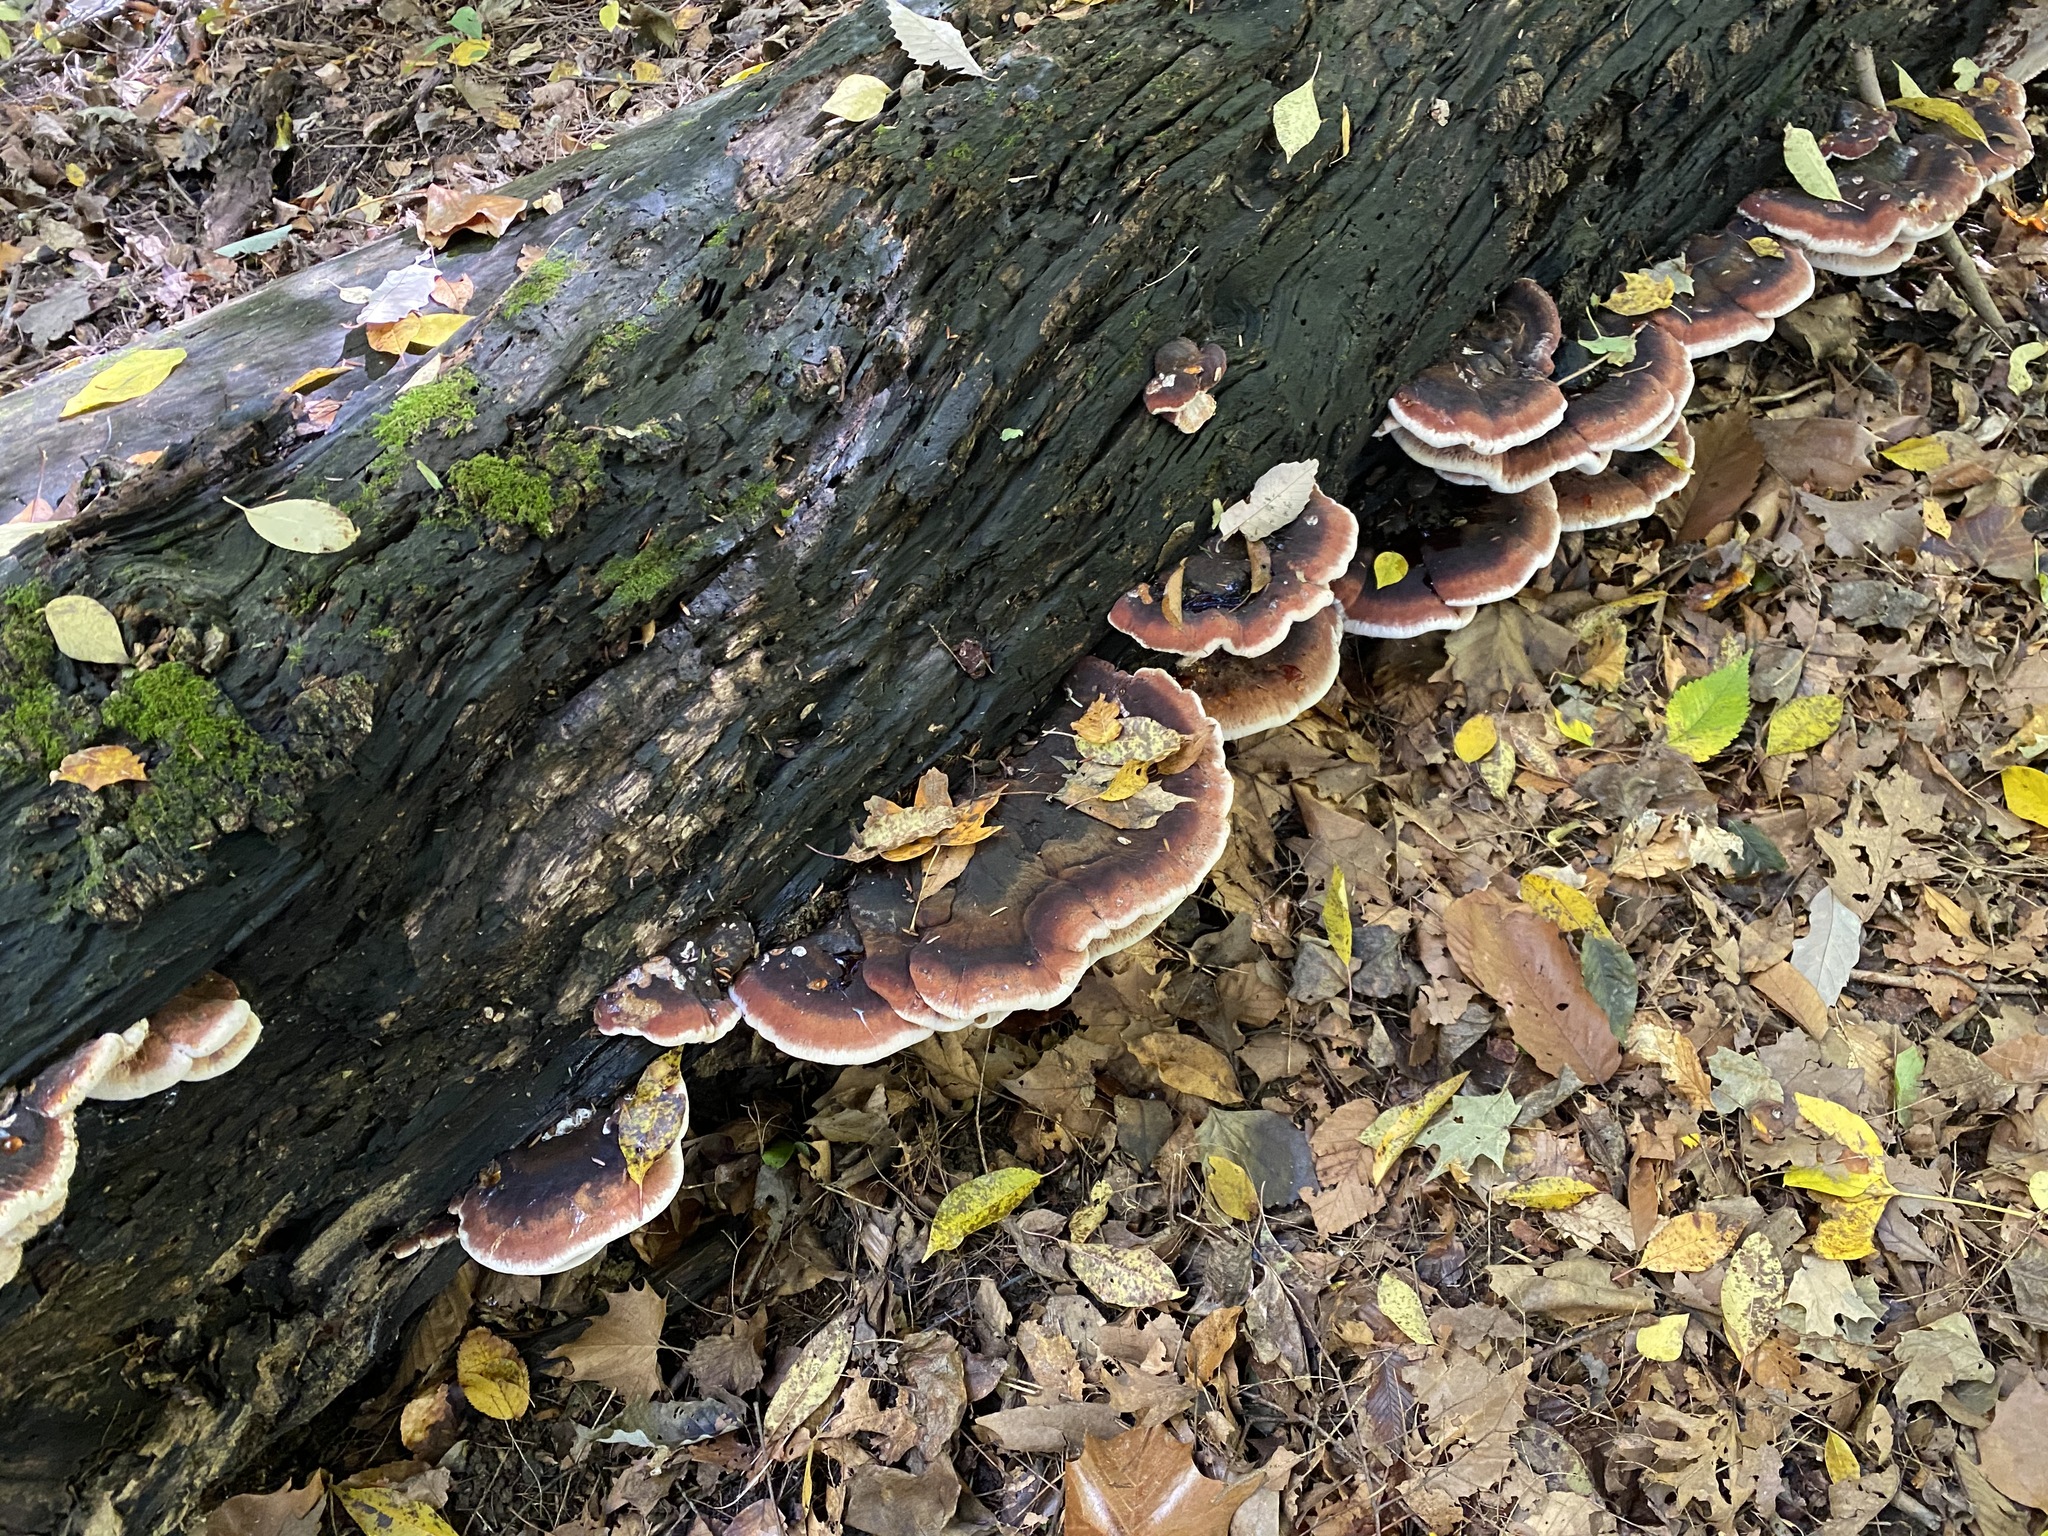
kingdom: Fungi
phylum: Basidiomycota
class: Agaricomycetes
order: Polyporales
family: Ischnodermataceae
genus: Ischnoderma
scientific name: Ischnoderma resinosum
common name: Resinous polypore
